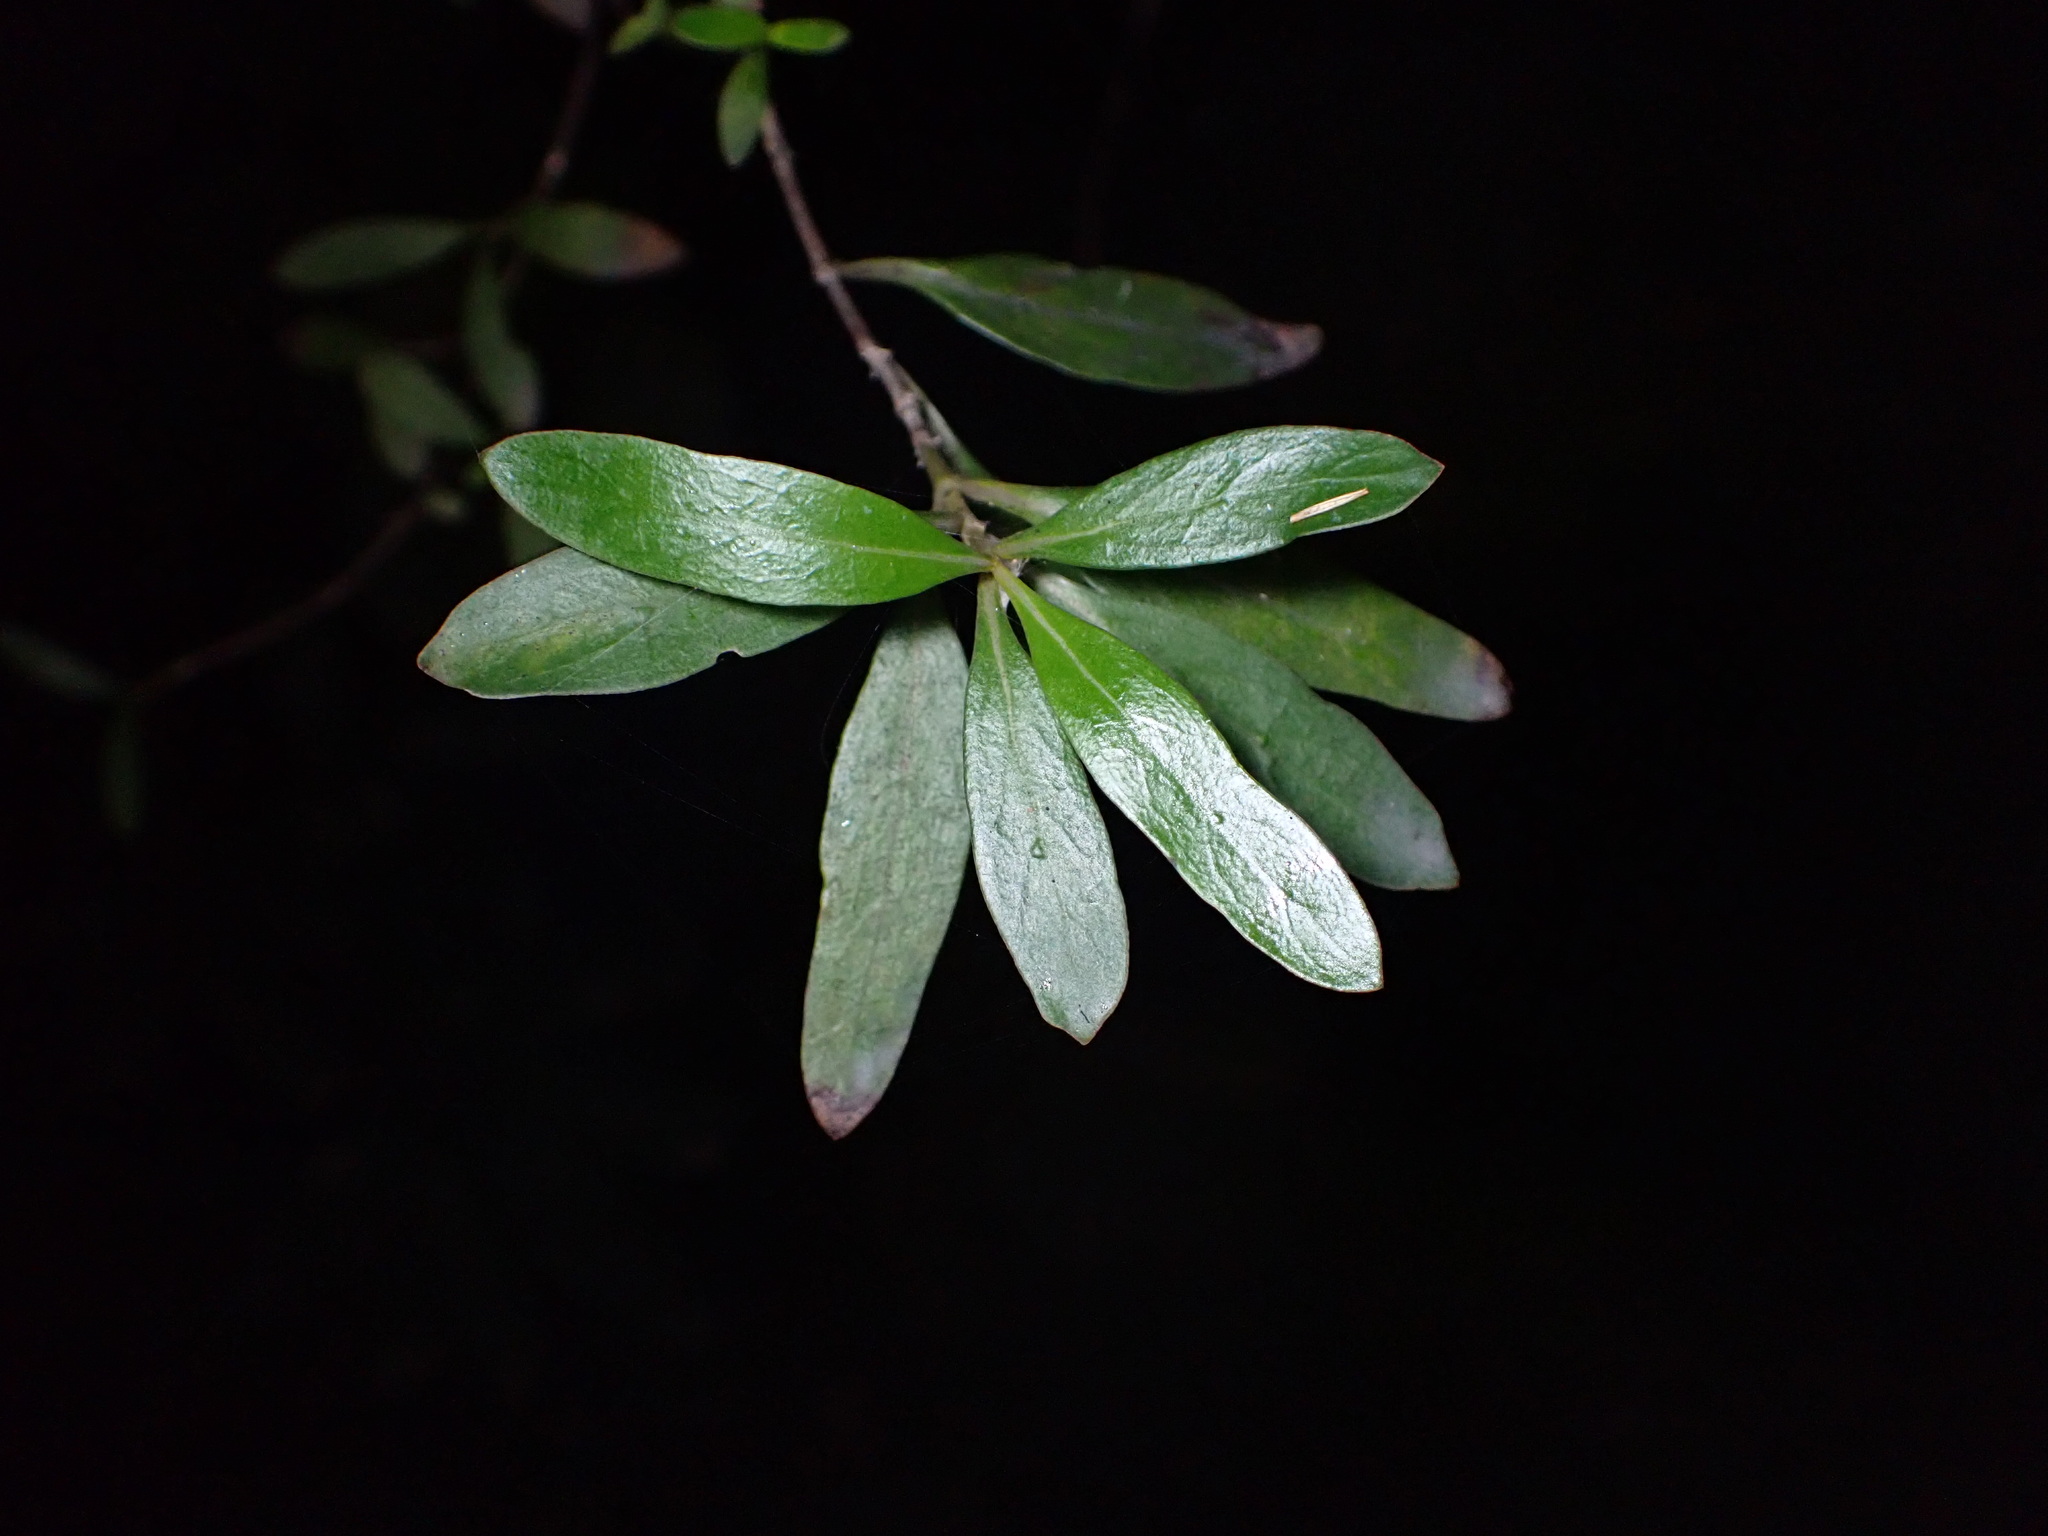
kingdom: Plantae
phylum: Tracheophyta
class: Magnoliopsida
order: Gentianales
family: Rubiaceae
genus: Coprosma
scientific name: Coprosma cunninghamii
